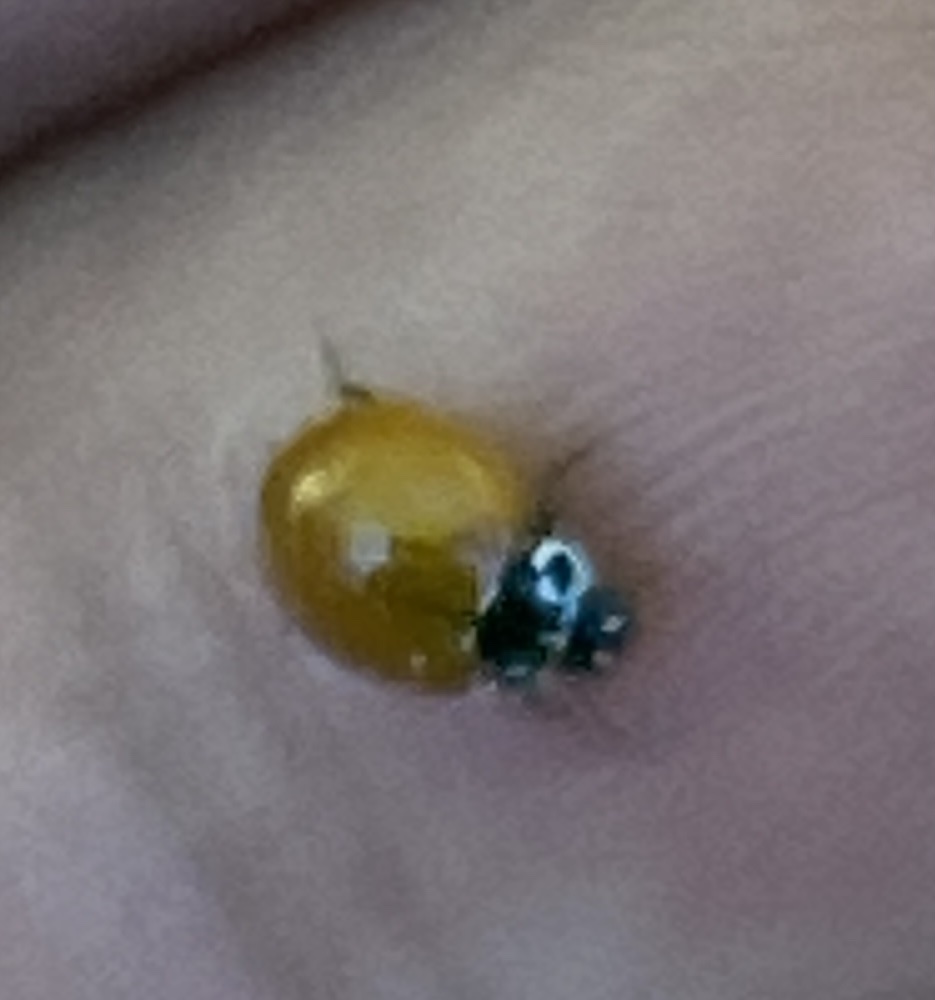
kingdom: Animalia
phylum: Arthropoda
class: Insecta
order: Coleoptera
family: Coccinellidae
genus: Cycloneda
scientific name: Cycloneda polita
